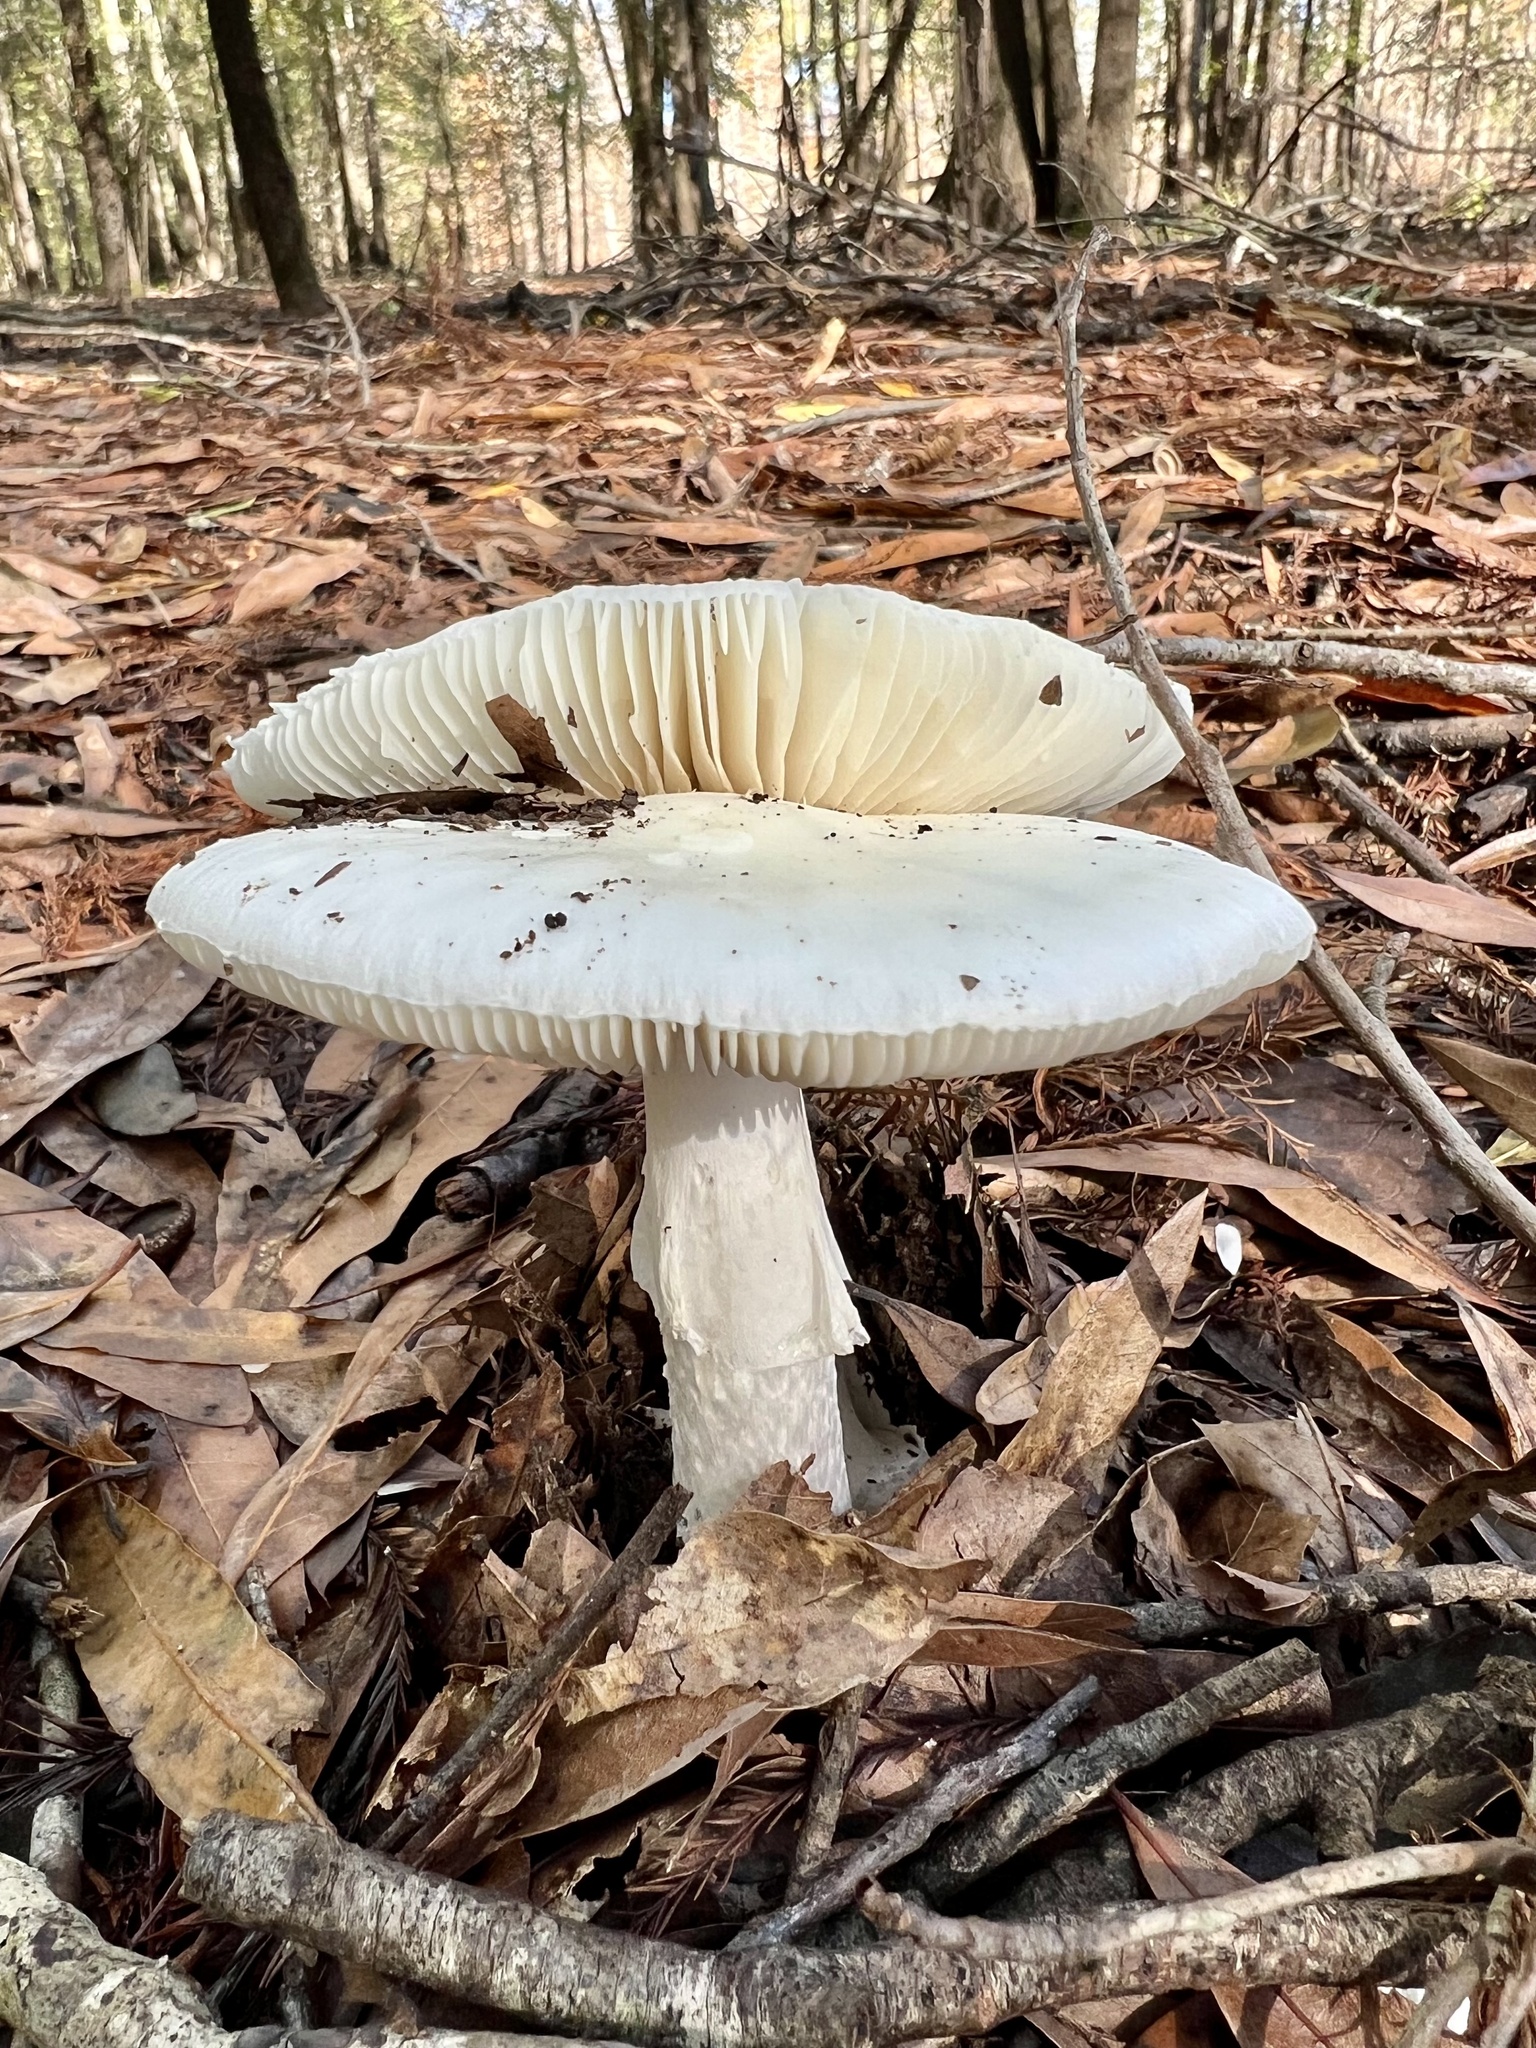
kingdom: Fungi
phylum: Basidiomycota
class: Agaricomycetes
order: Agaricales
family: Amanitaceae
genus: Amanita
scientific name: Amanita amerivirosa
